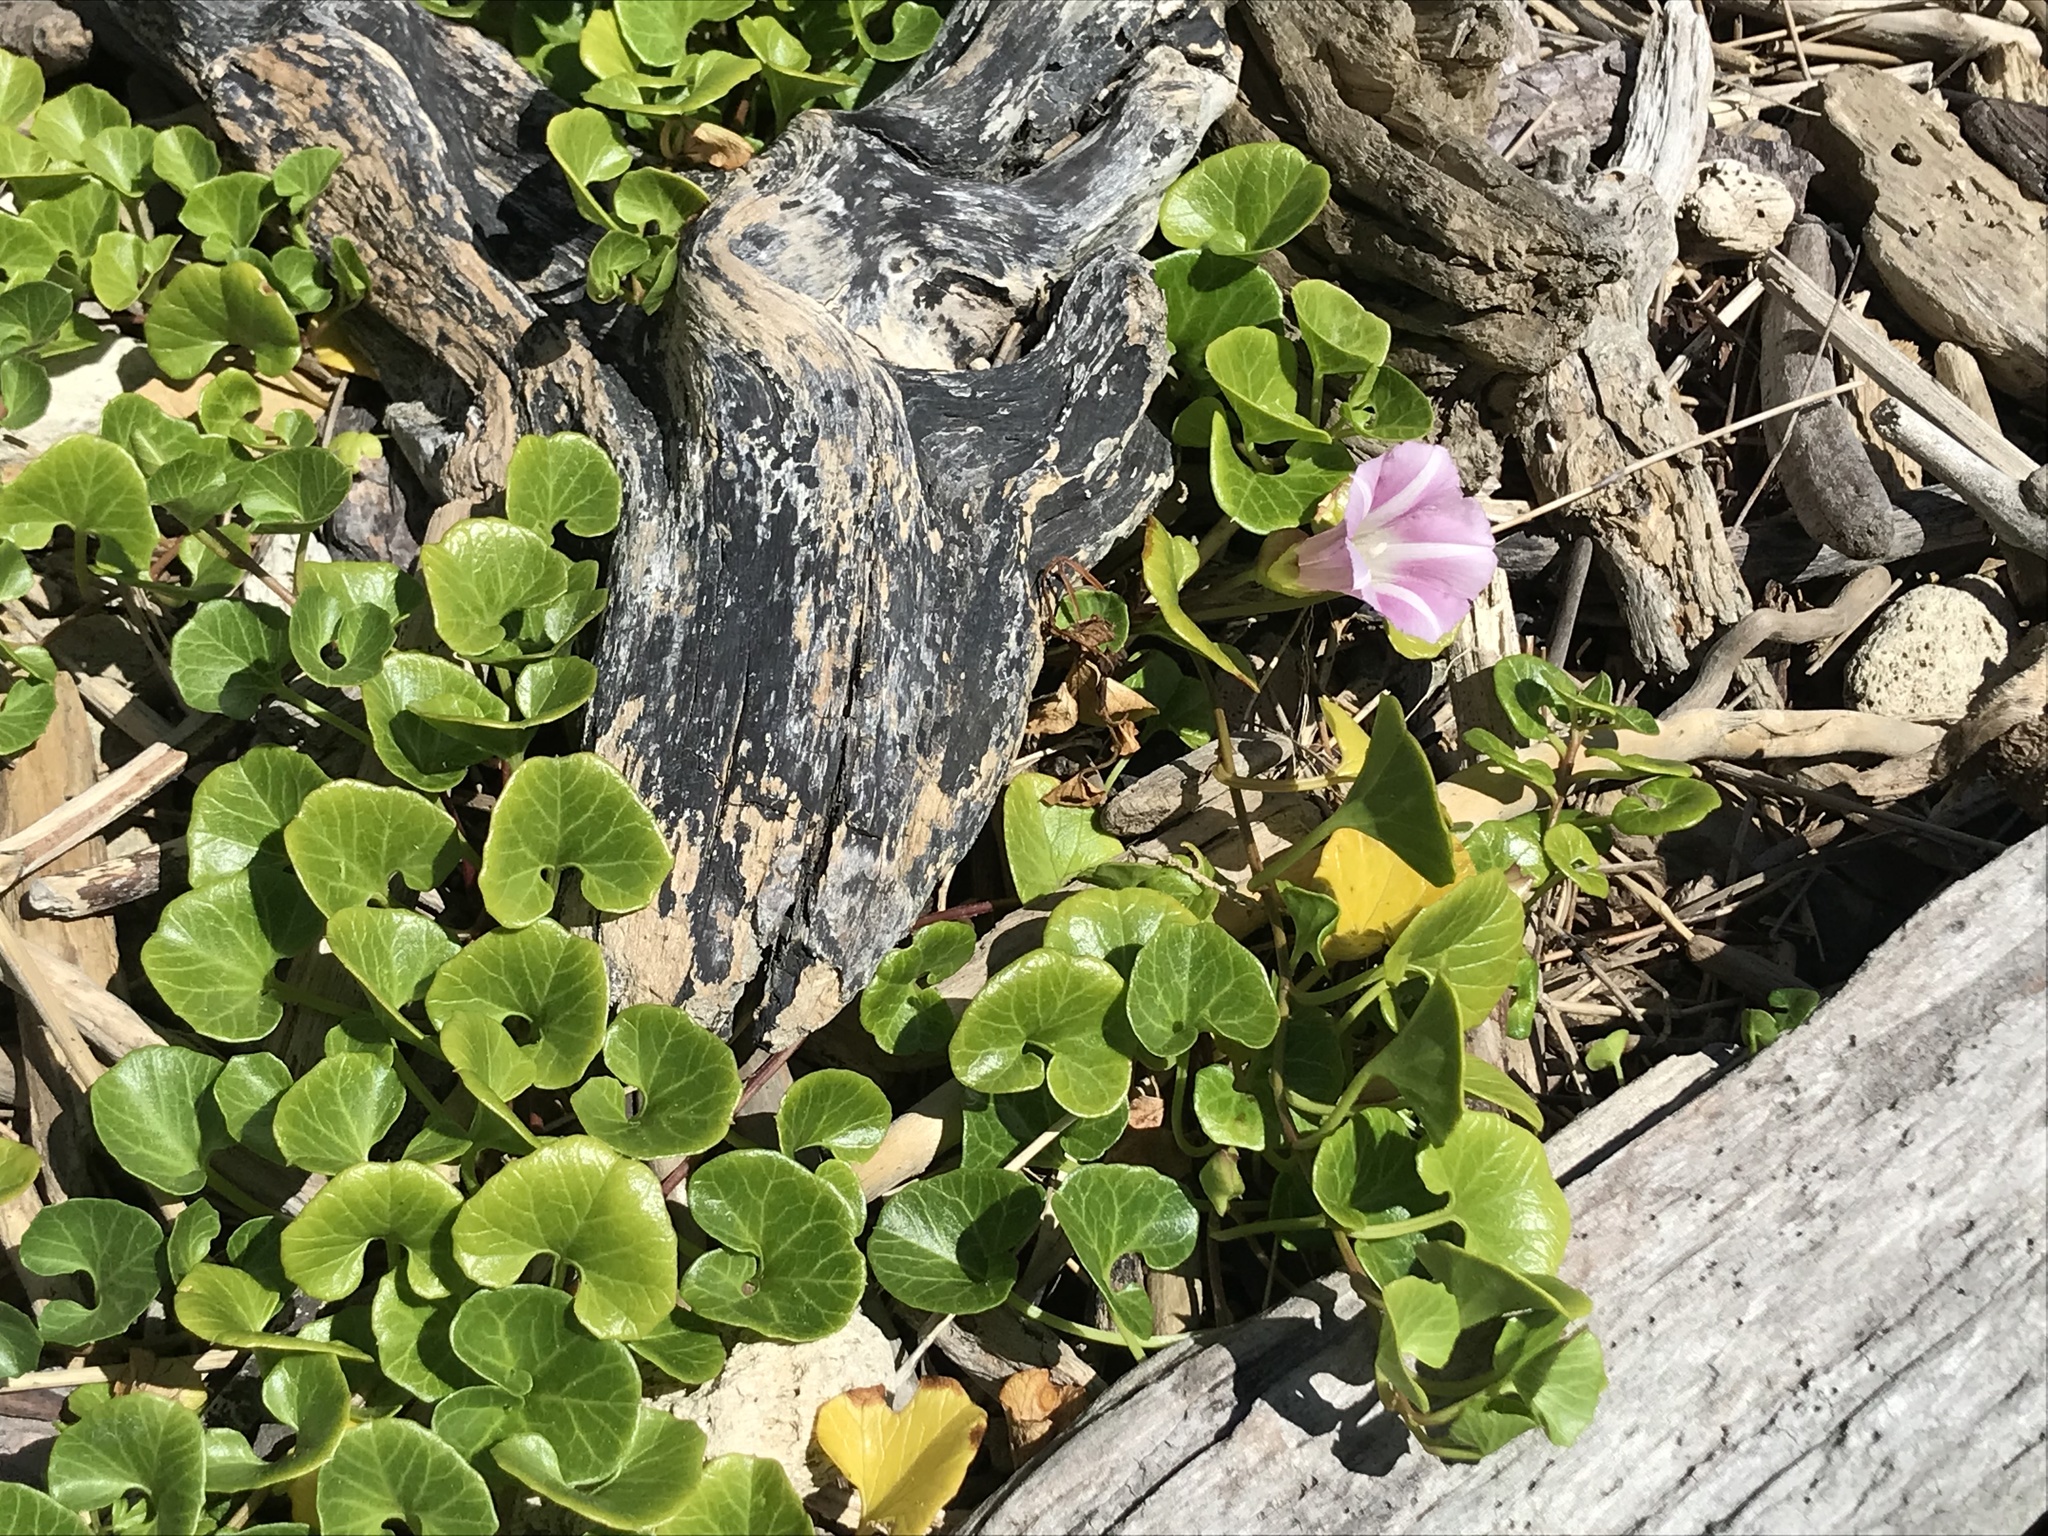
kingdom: Plantae
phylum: Tracheophyta
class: Magnoliopsida
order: Solanales
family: Convolvulaceae
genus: Calystegia
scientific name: Calystegia soldanella
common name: Sea bindweed
